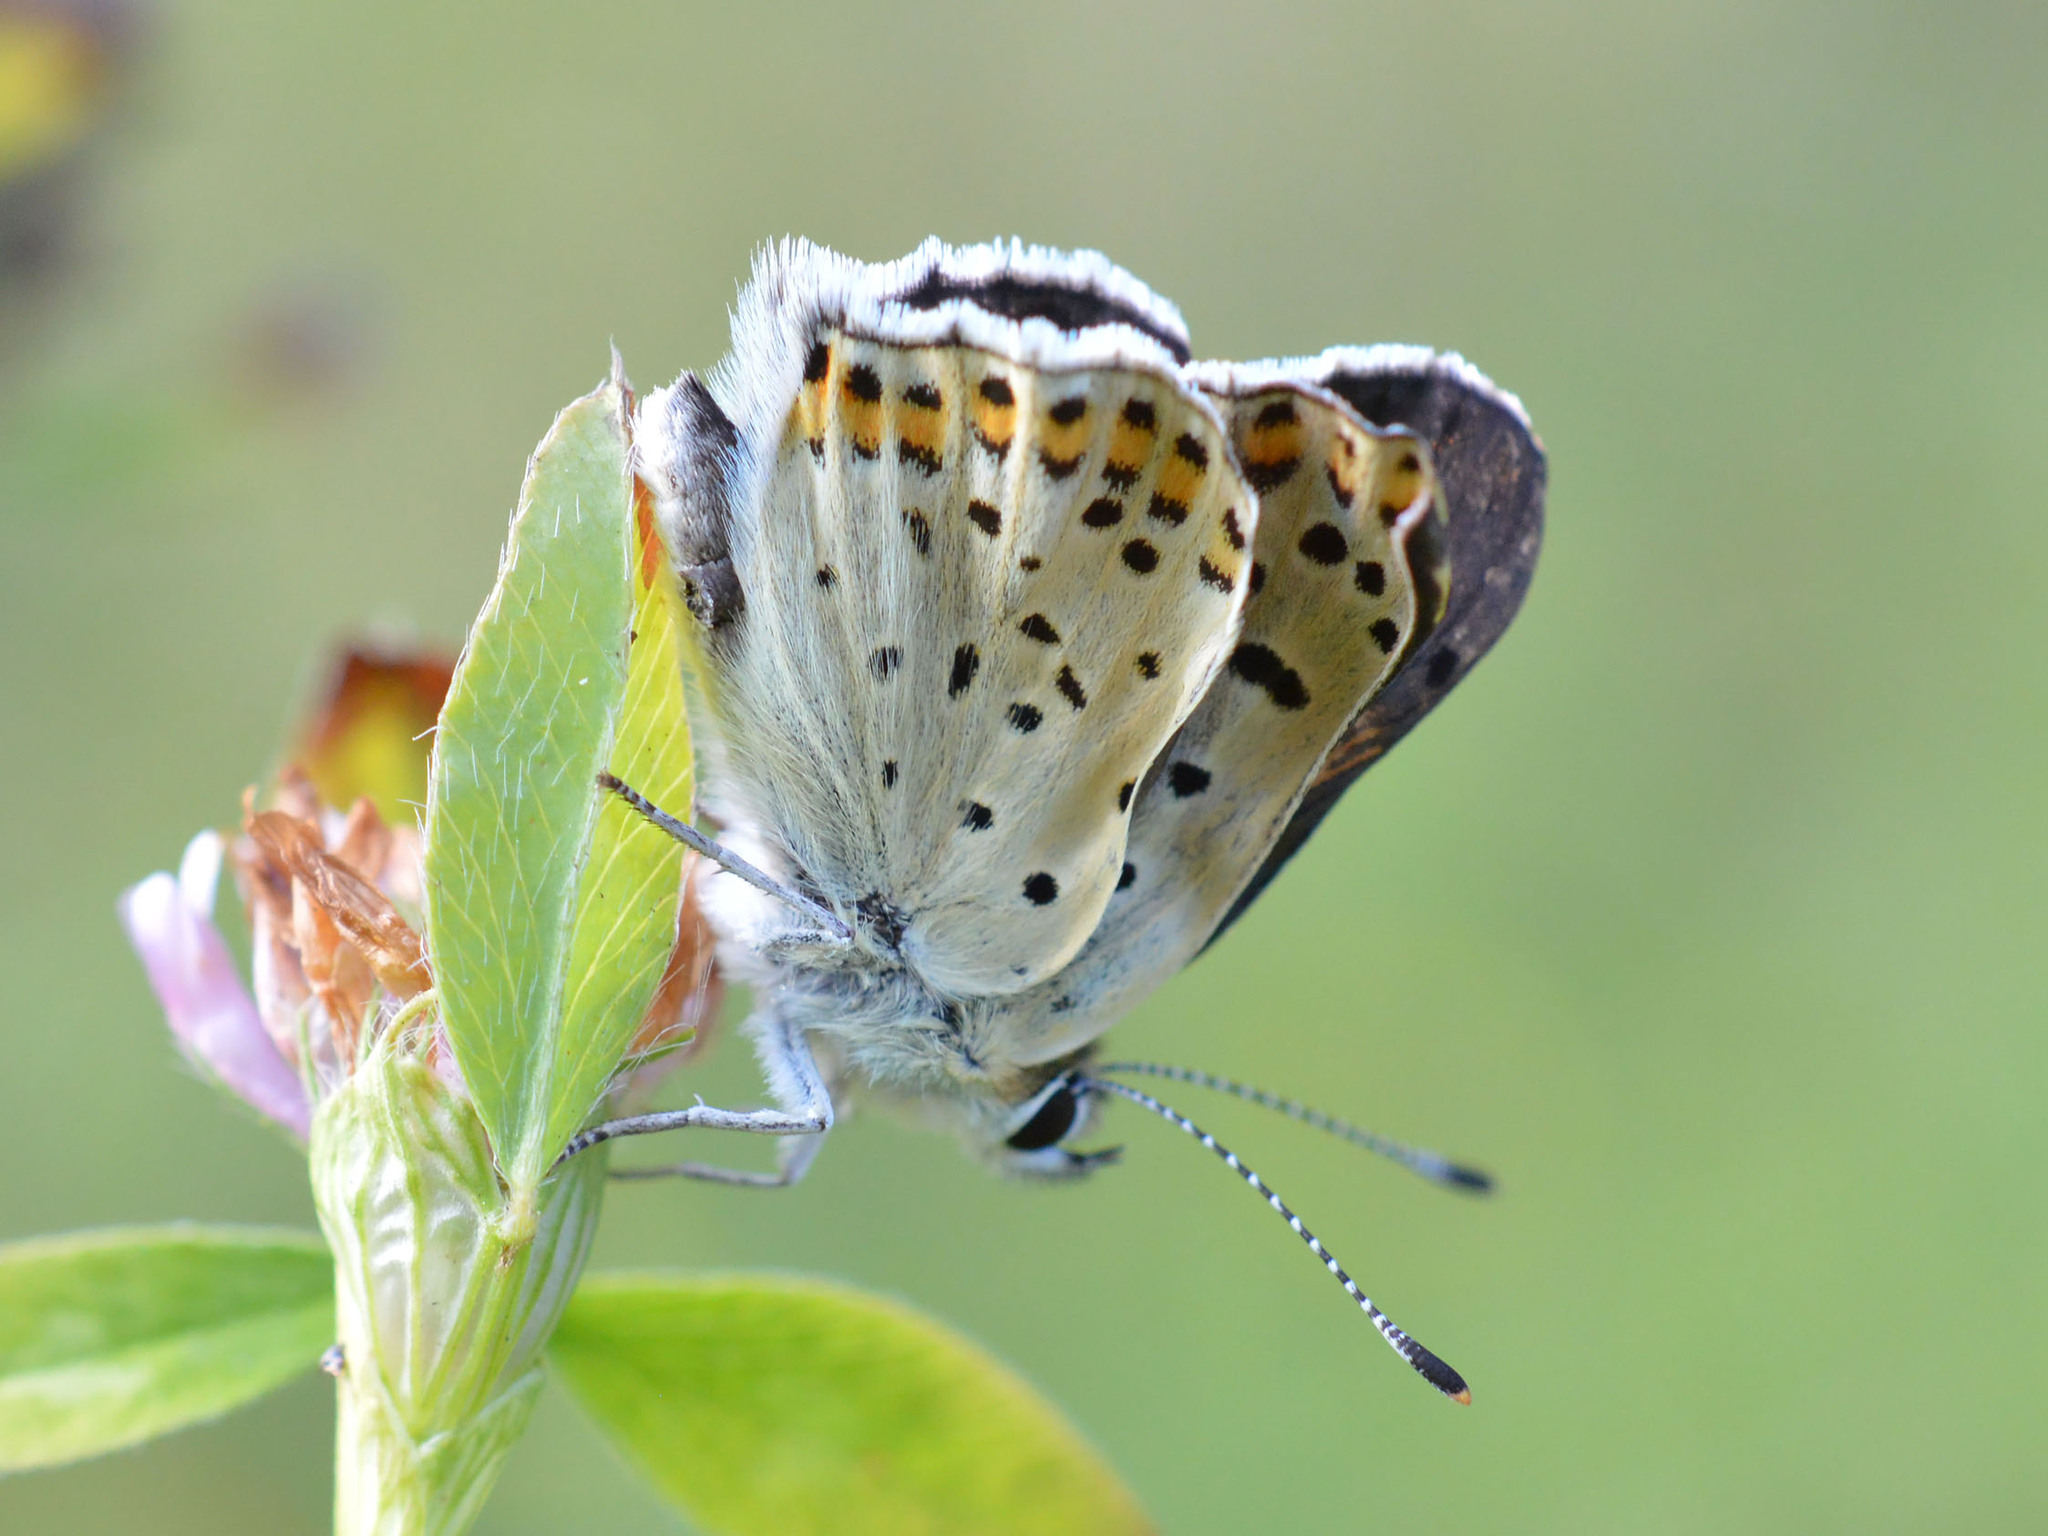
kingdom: Animalia
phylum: Arthropoda
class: Insecta
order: Lepidoptera
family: Lycaenidae
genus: Loweia
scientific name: Loweia tityrus
